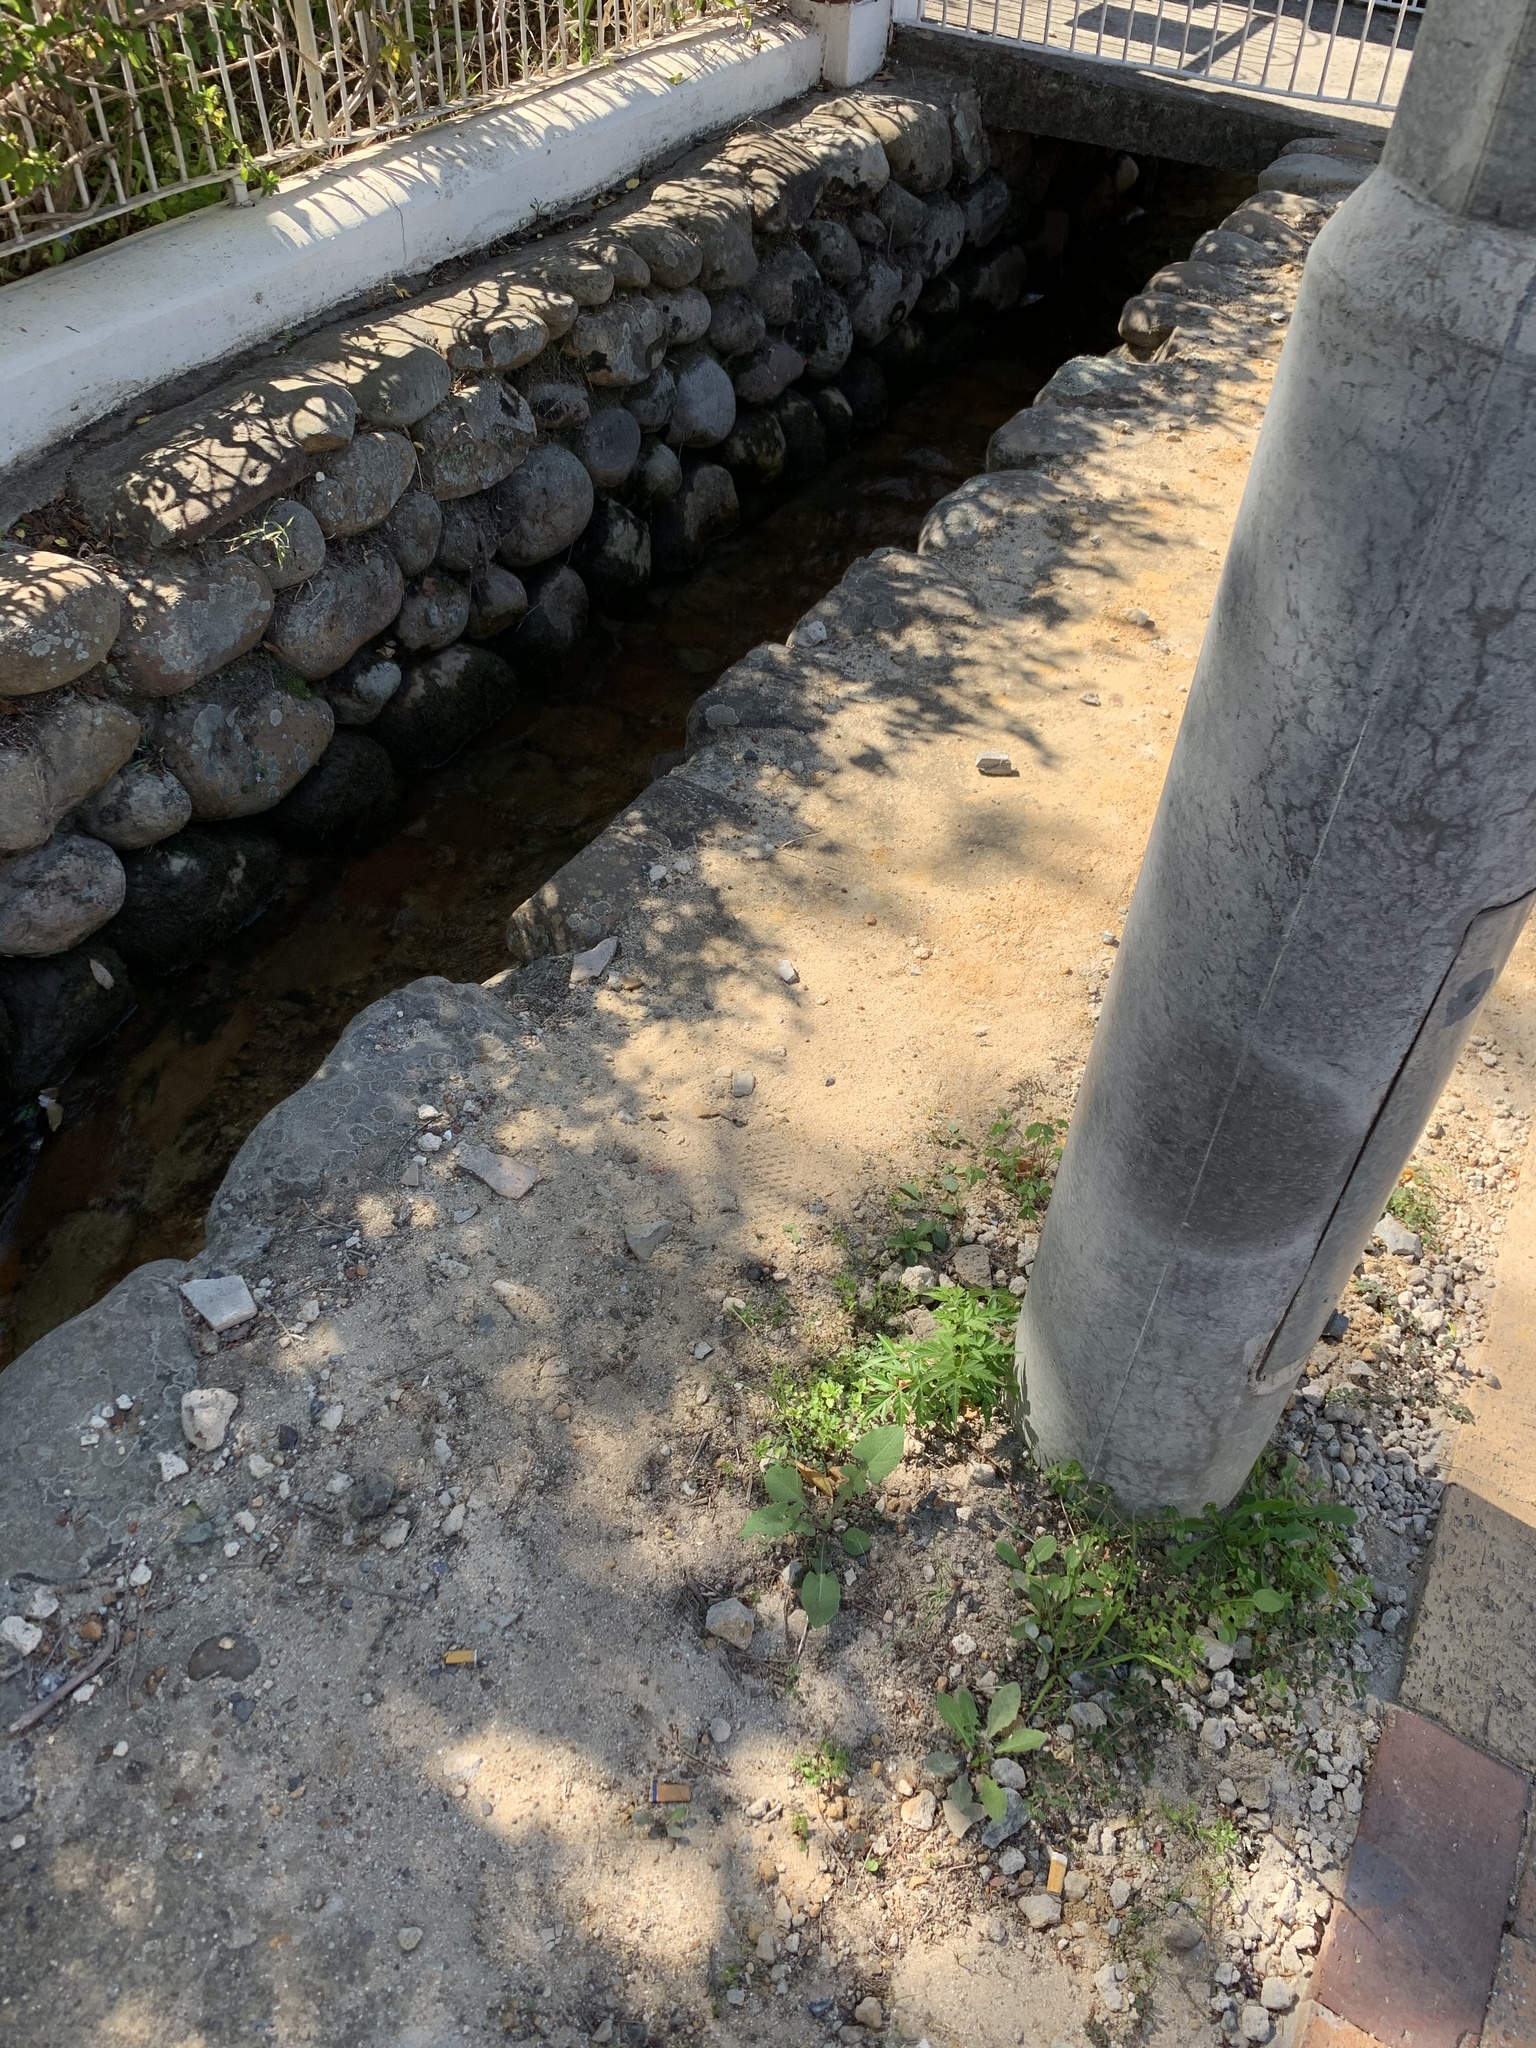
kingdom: Plantae
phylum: Tracheophyta
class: Magnoliopsida
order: Sapindales
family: Meliaceae
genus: Melia
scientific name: Melia azedarach
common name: Chinaberrytree
